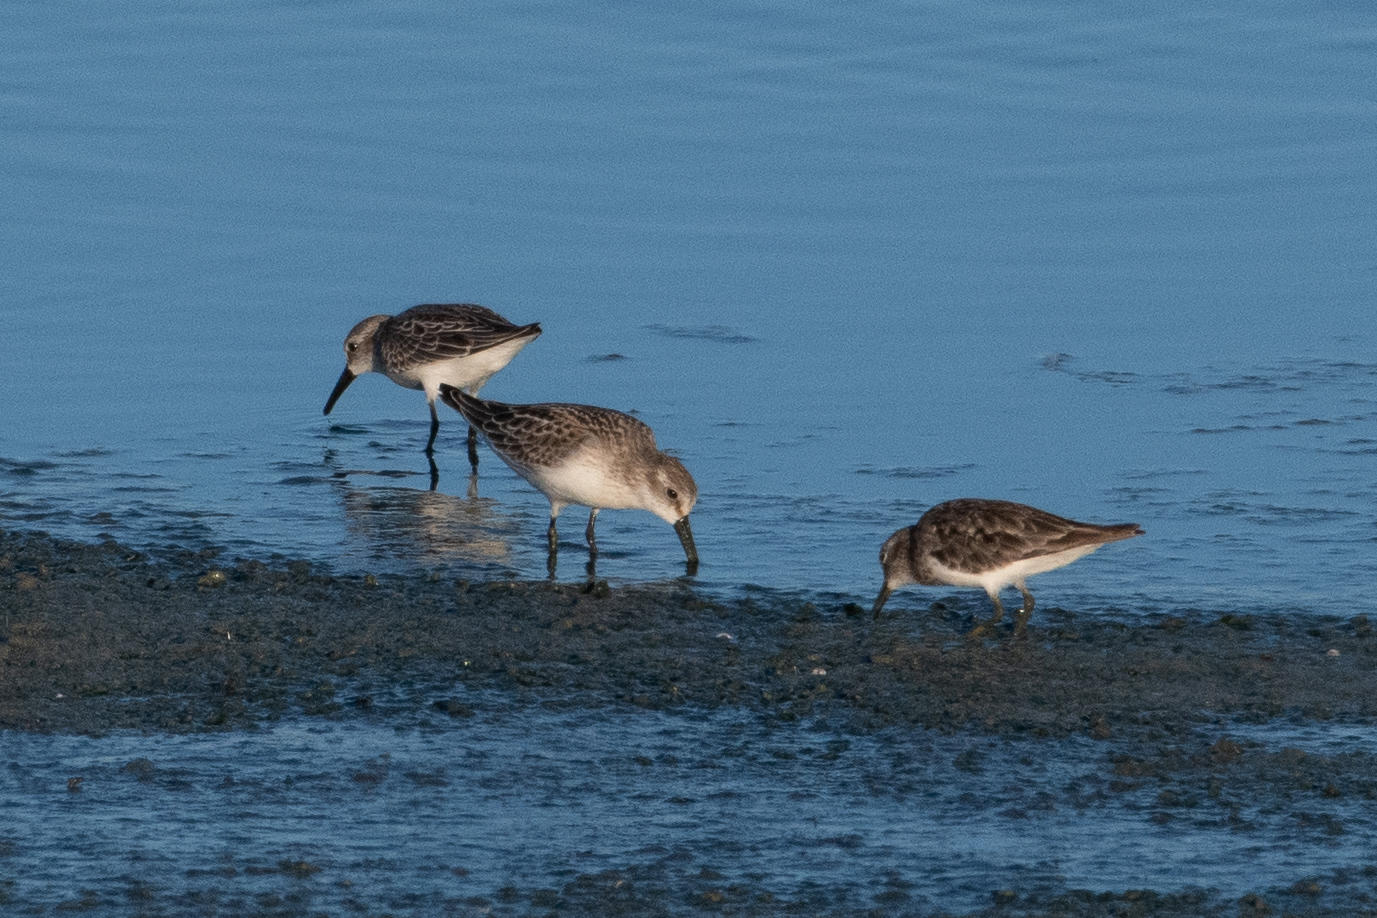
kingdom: Animalia
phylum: Chordata
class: Aves
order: Charadriiformes
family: Scolopacidae
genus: Calidris
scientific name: Calidris mauri
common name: Western sandpiper
